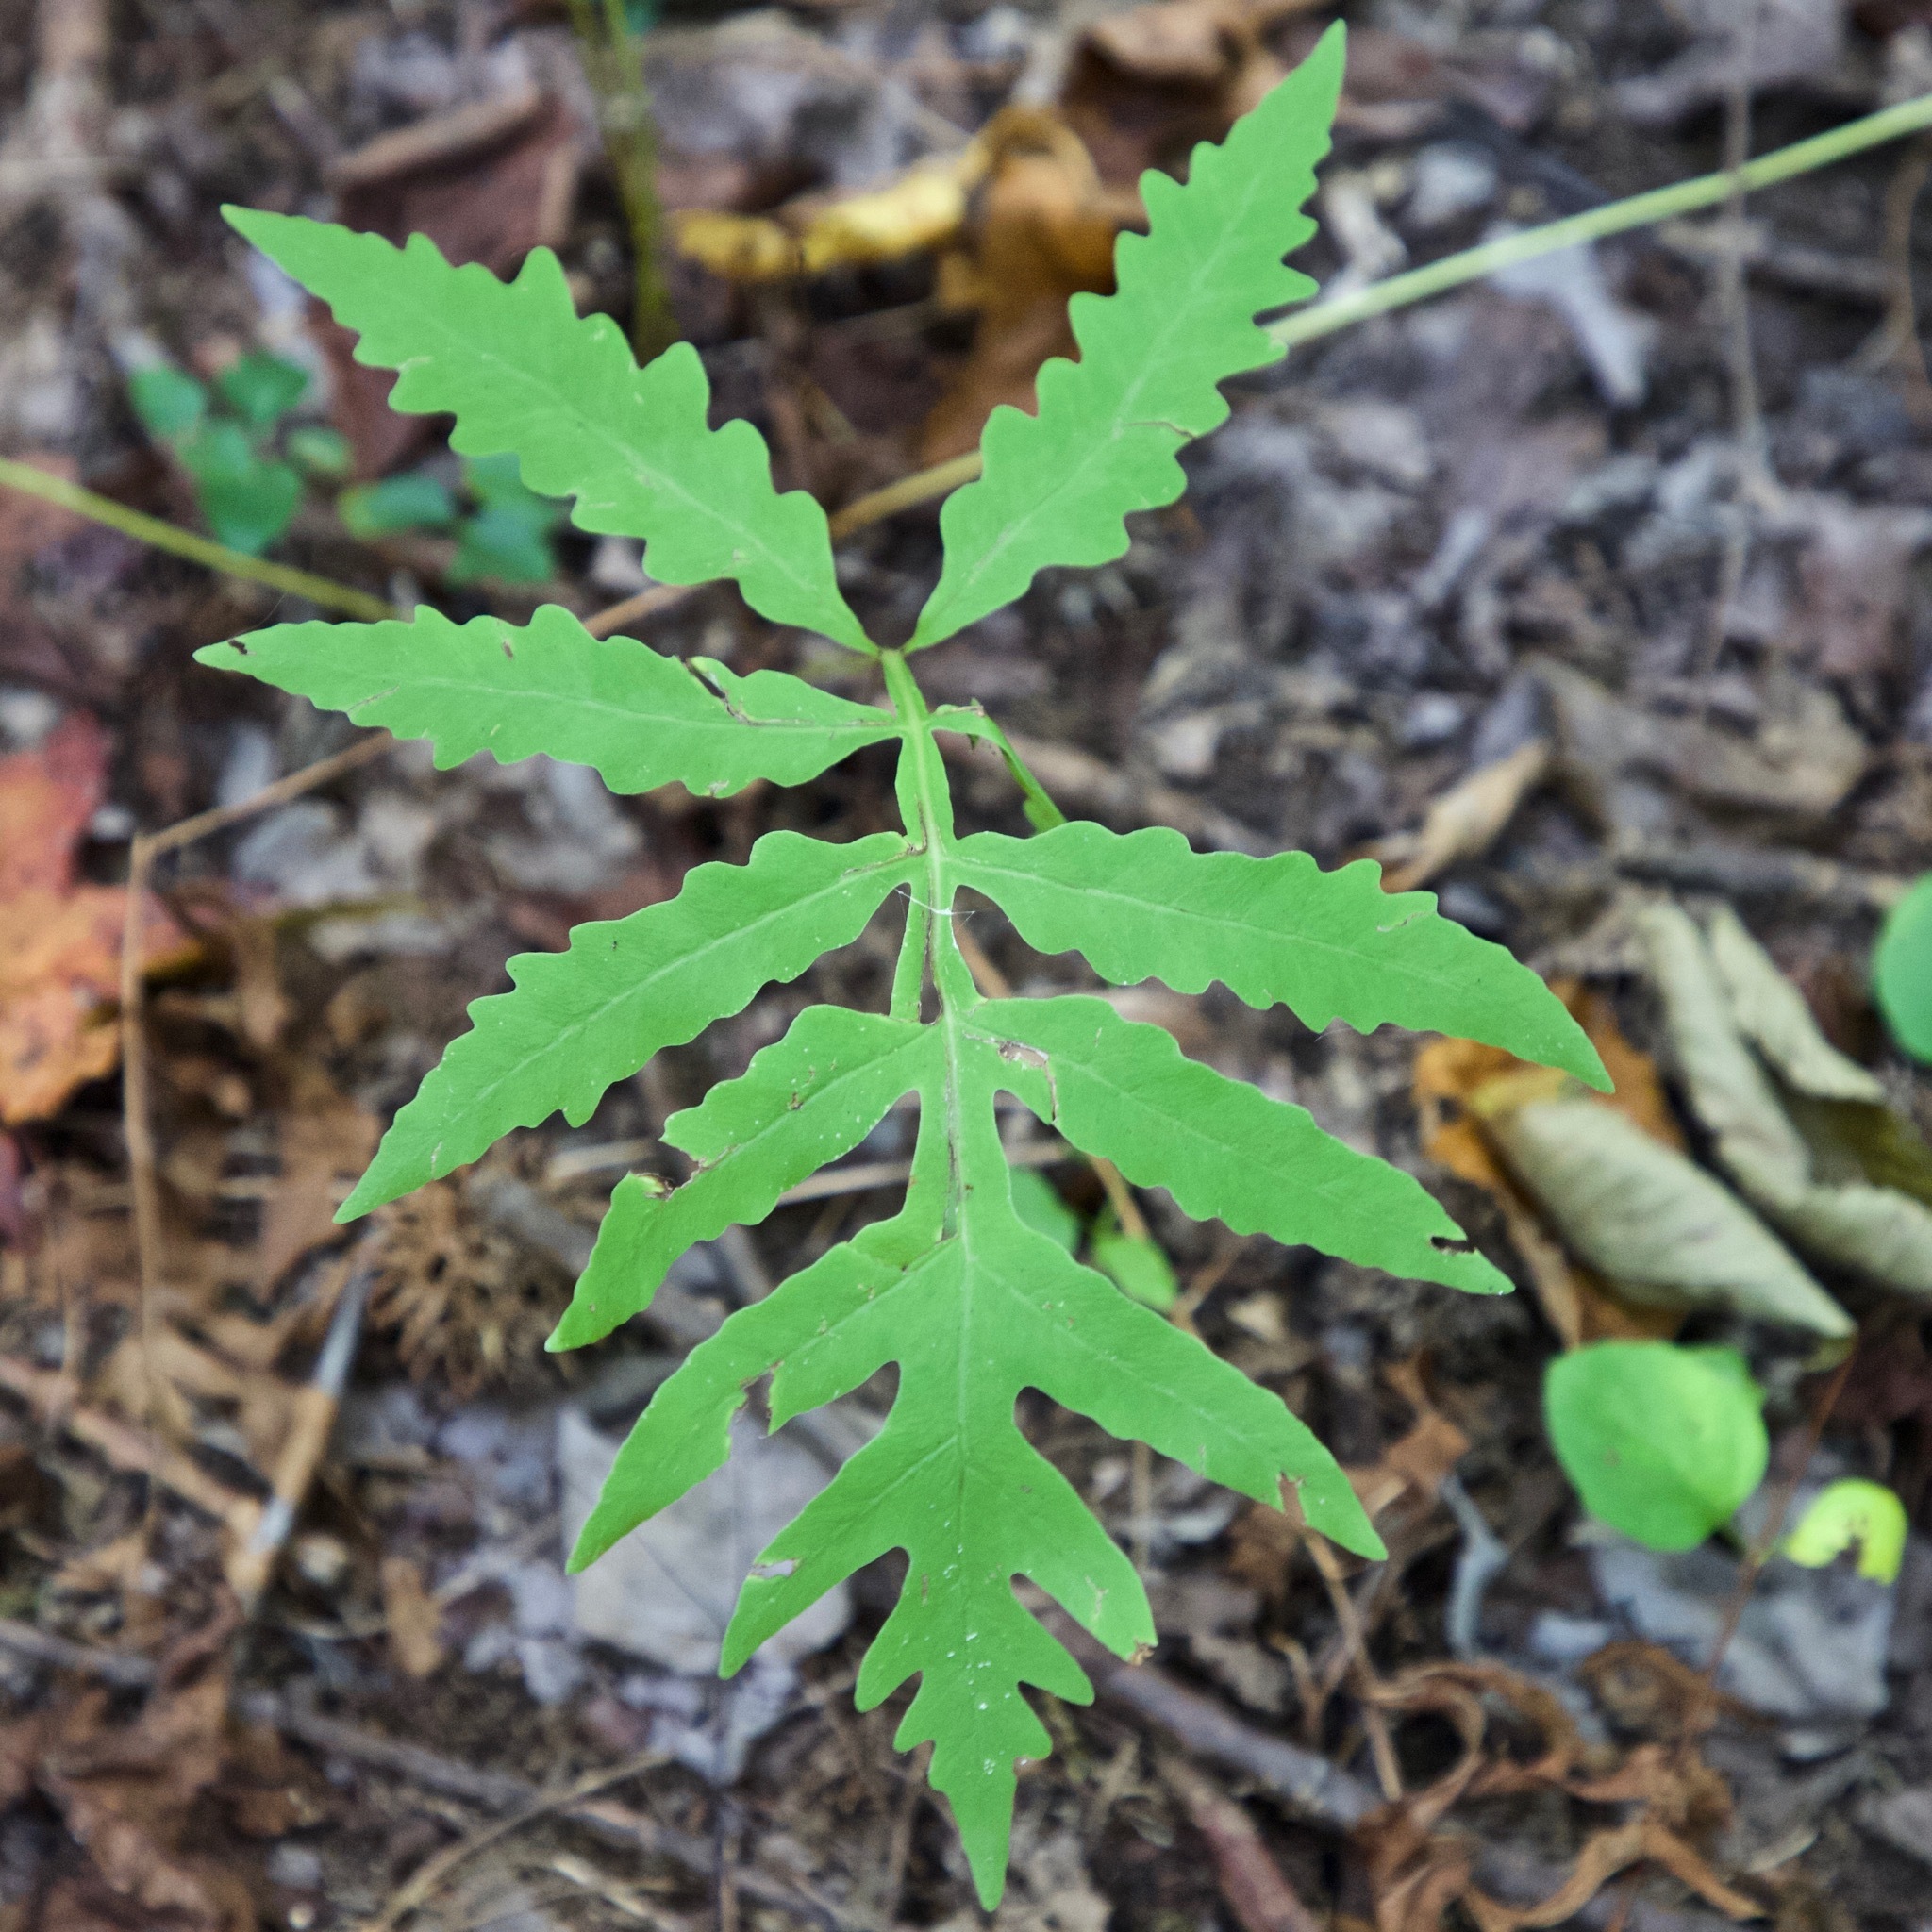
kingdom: Plantae
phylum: Tracheophyta
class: Polypodiopsida
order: Polypodiales
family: Onocleaceae
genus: Onoclea
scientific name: Onoclea sensibilis
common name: Sensitive fern
